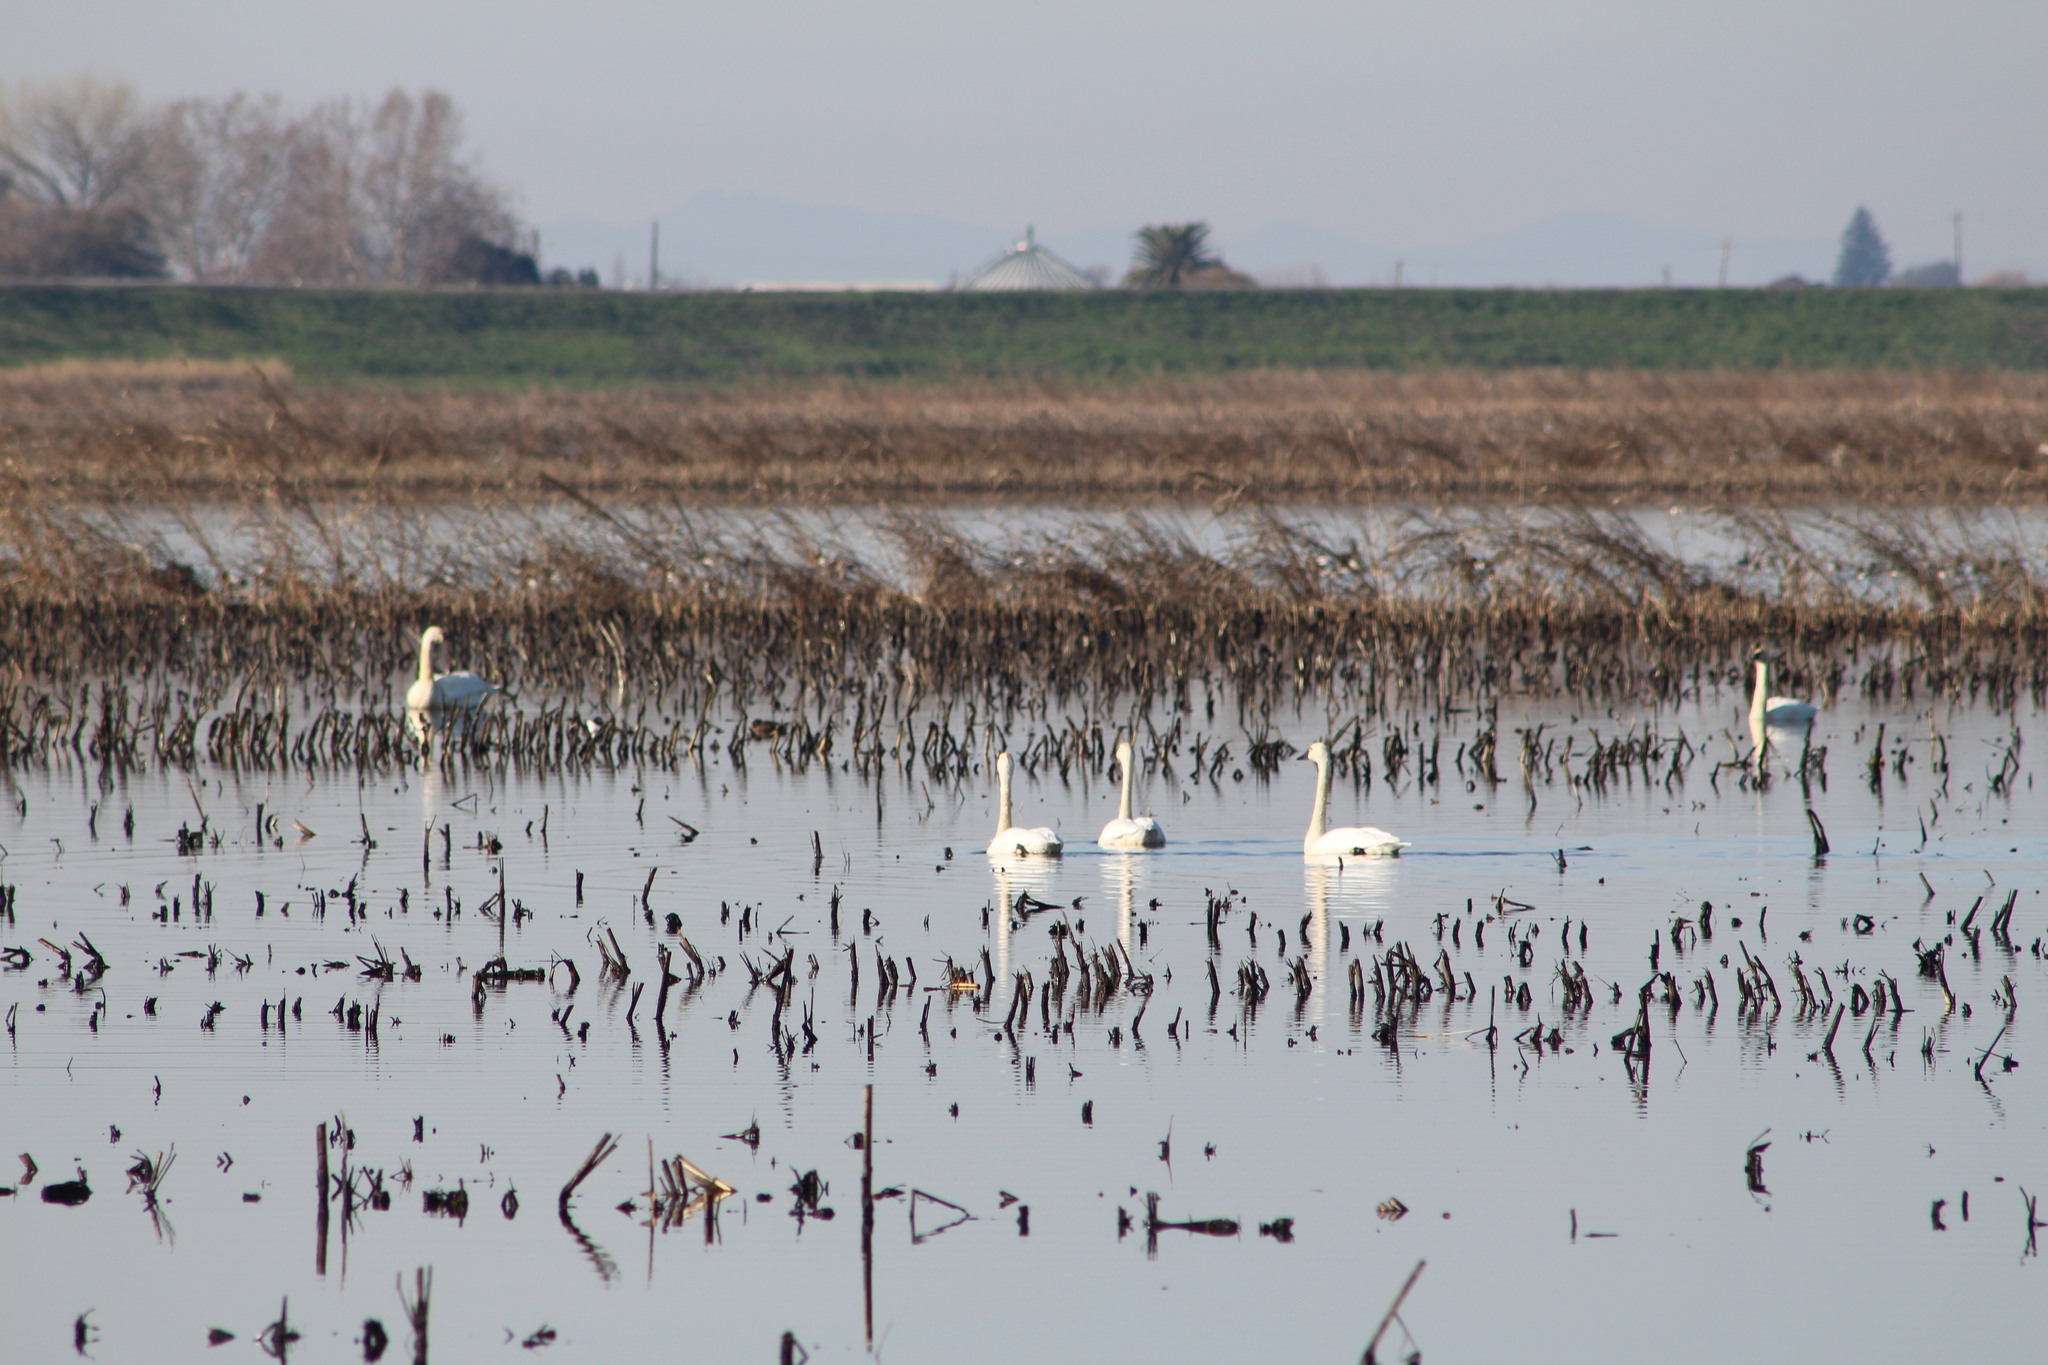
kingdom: Animalia
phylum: Chordata
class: Aves
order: Anseriformes
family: Anatidae
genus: Cygnus
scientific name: Cygnus columbianus
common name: Tundra swan
